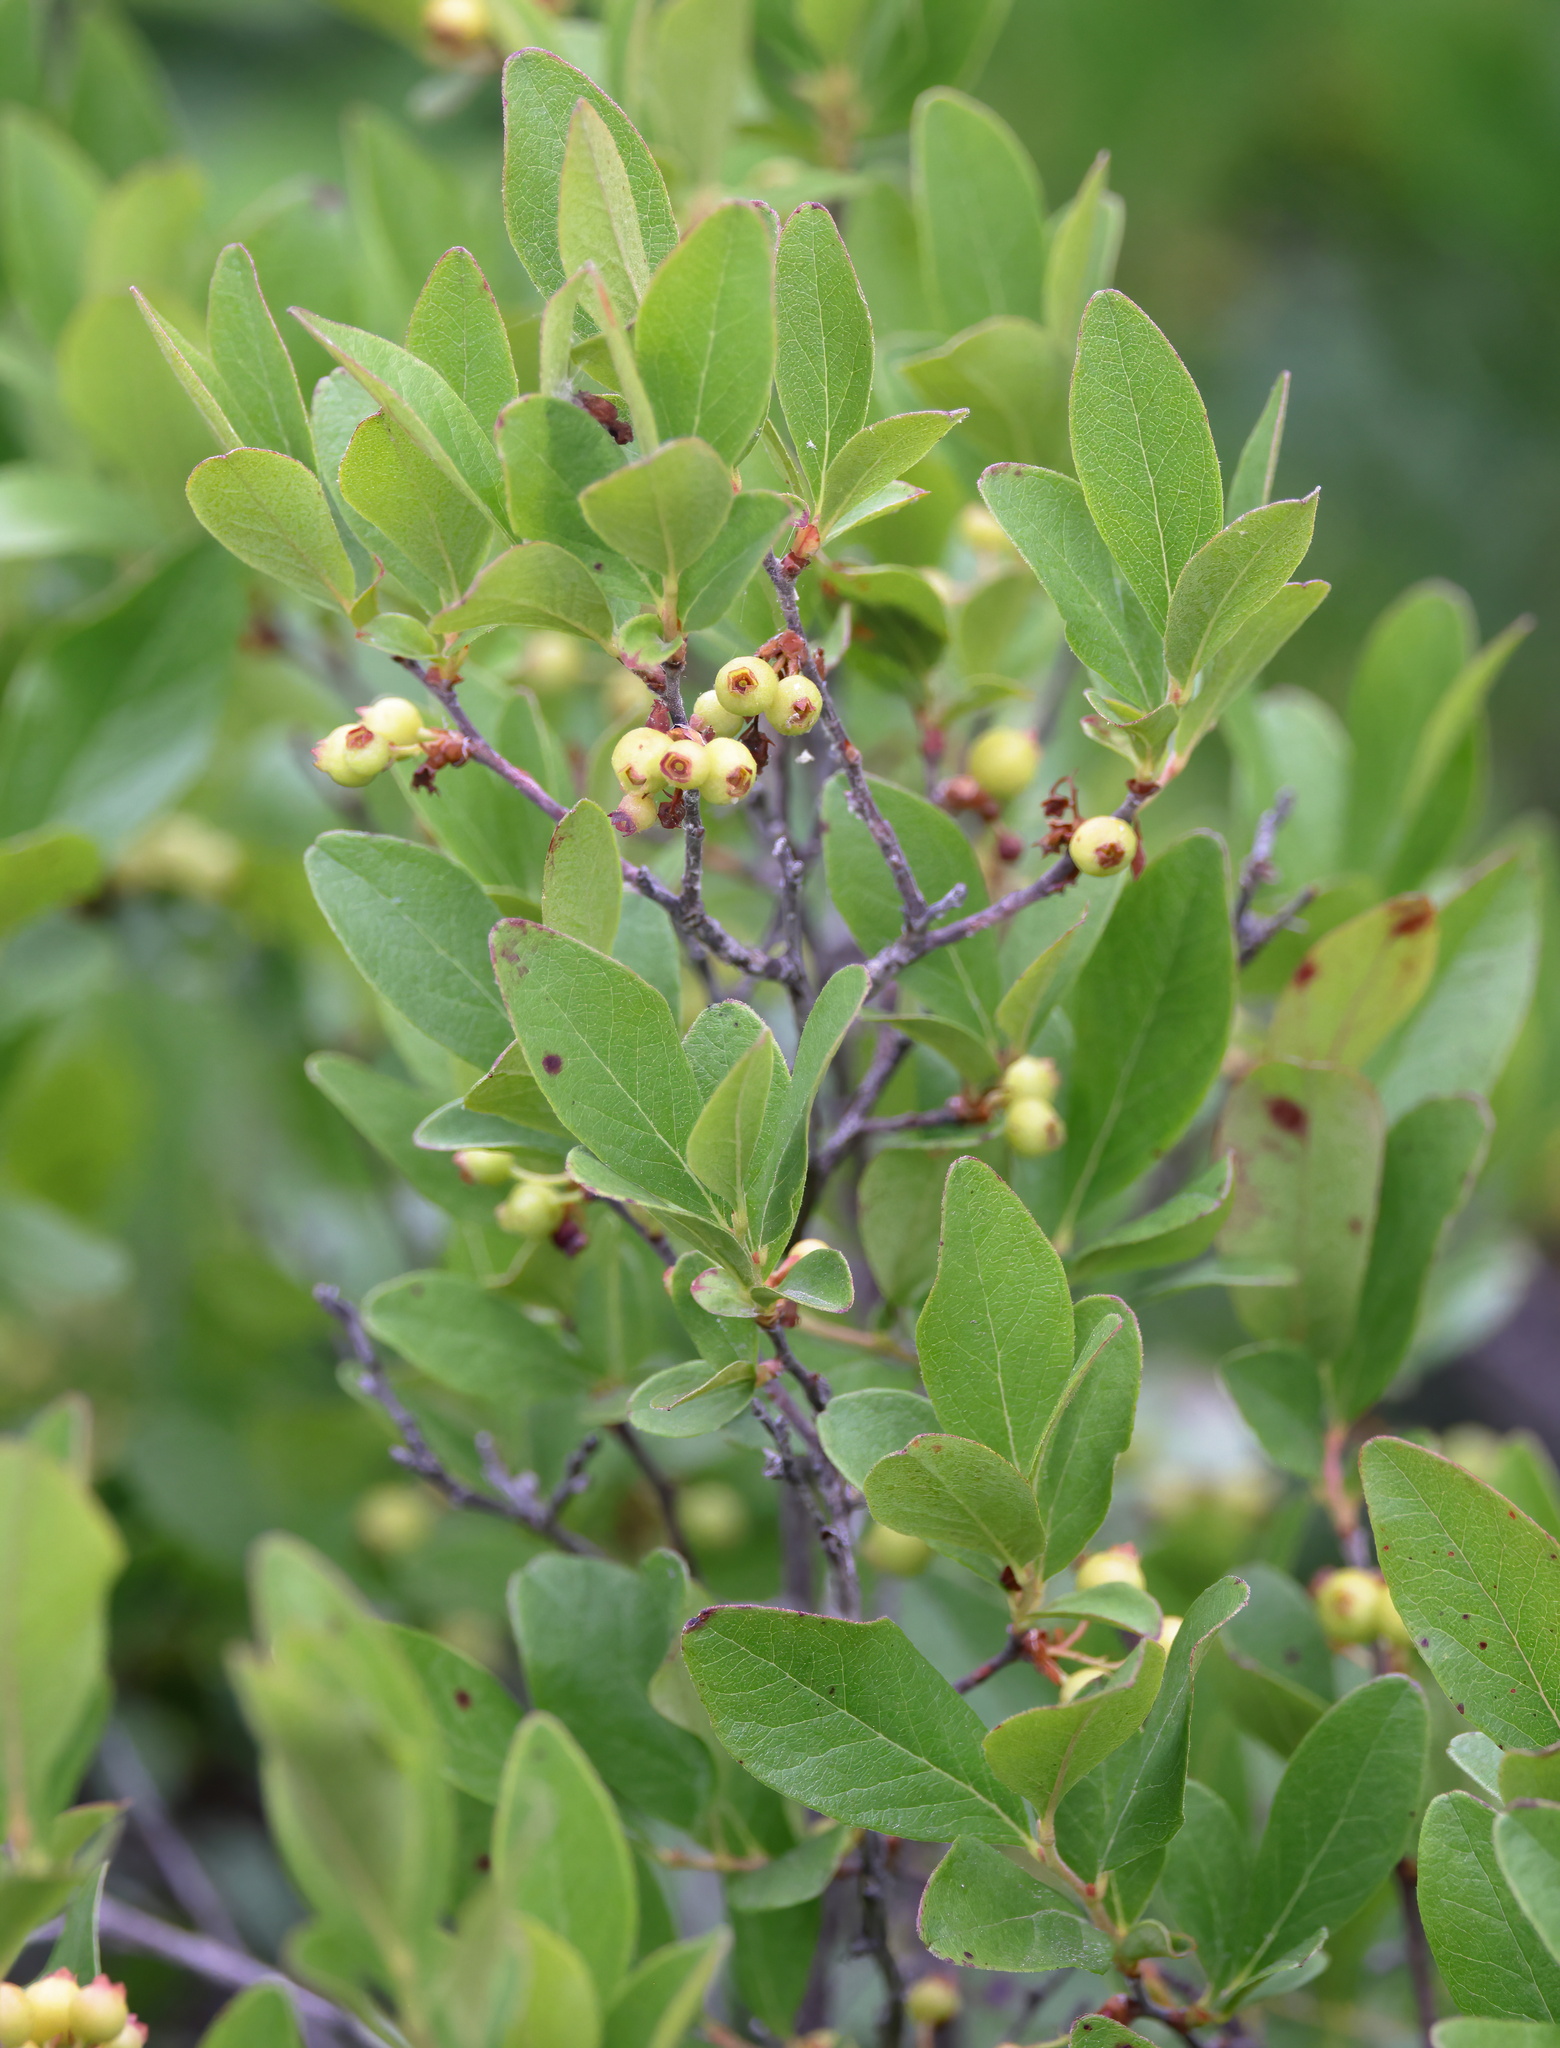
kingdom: Plantae
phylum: Tracheophyta
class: Magnoliopsida
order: Ericales
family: Ericaceae
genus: Gaylussacia
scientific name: Gaylussacia baccata
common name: Black huckleberry
